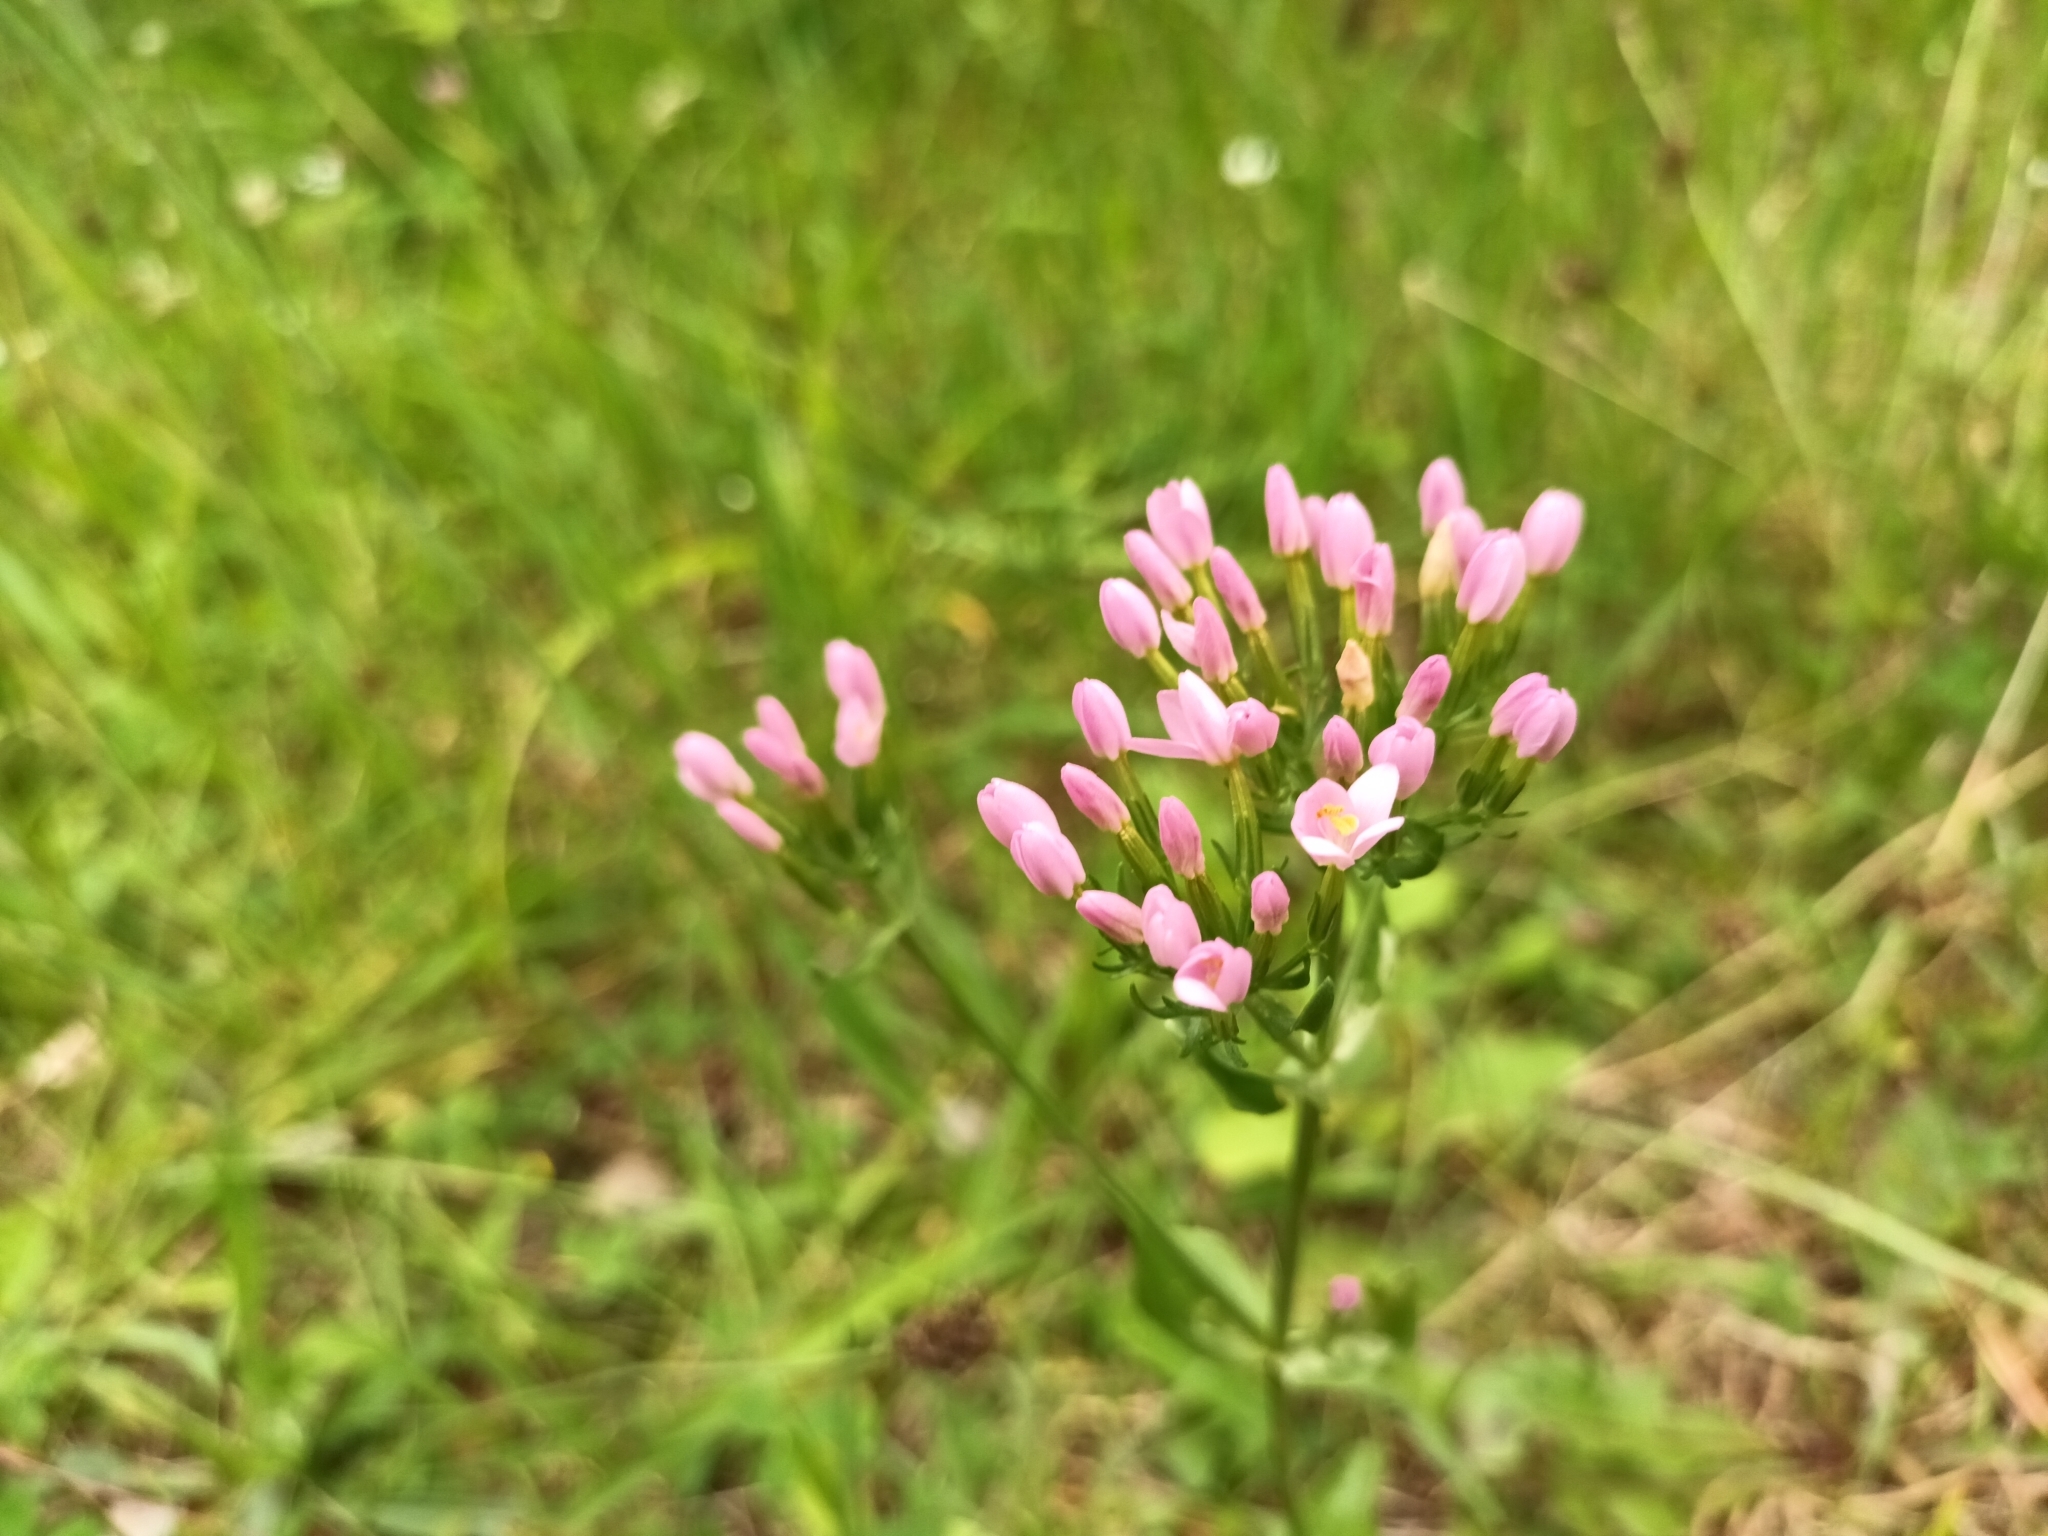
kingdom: Plantae
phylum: Tracheophyta
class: Magnoliopsida
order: Gentianales
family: Gentianaceae
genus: Centaurium
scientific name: Centaurium erythraea
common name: Common centaury
